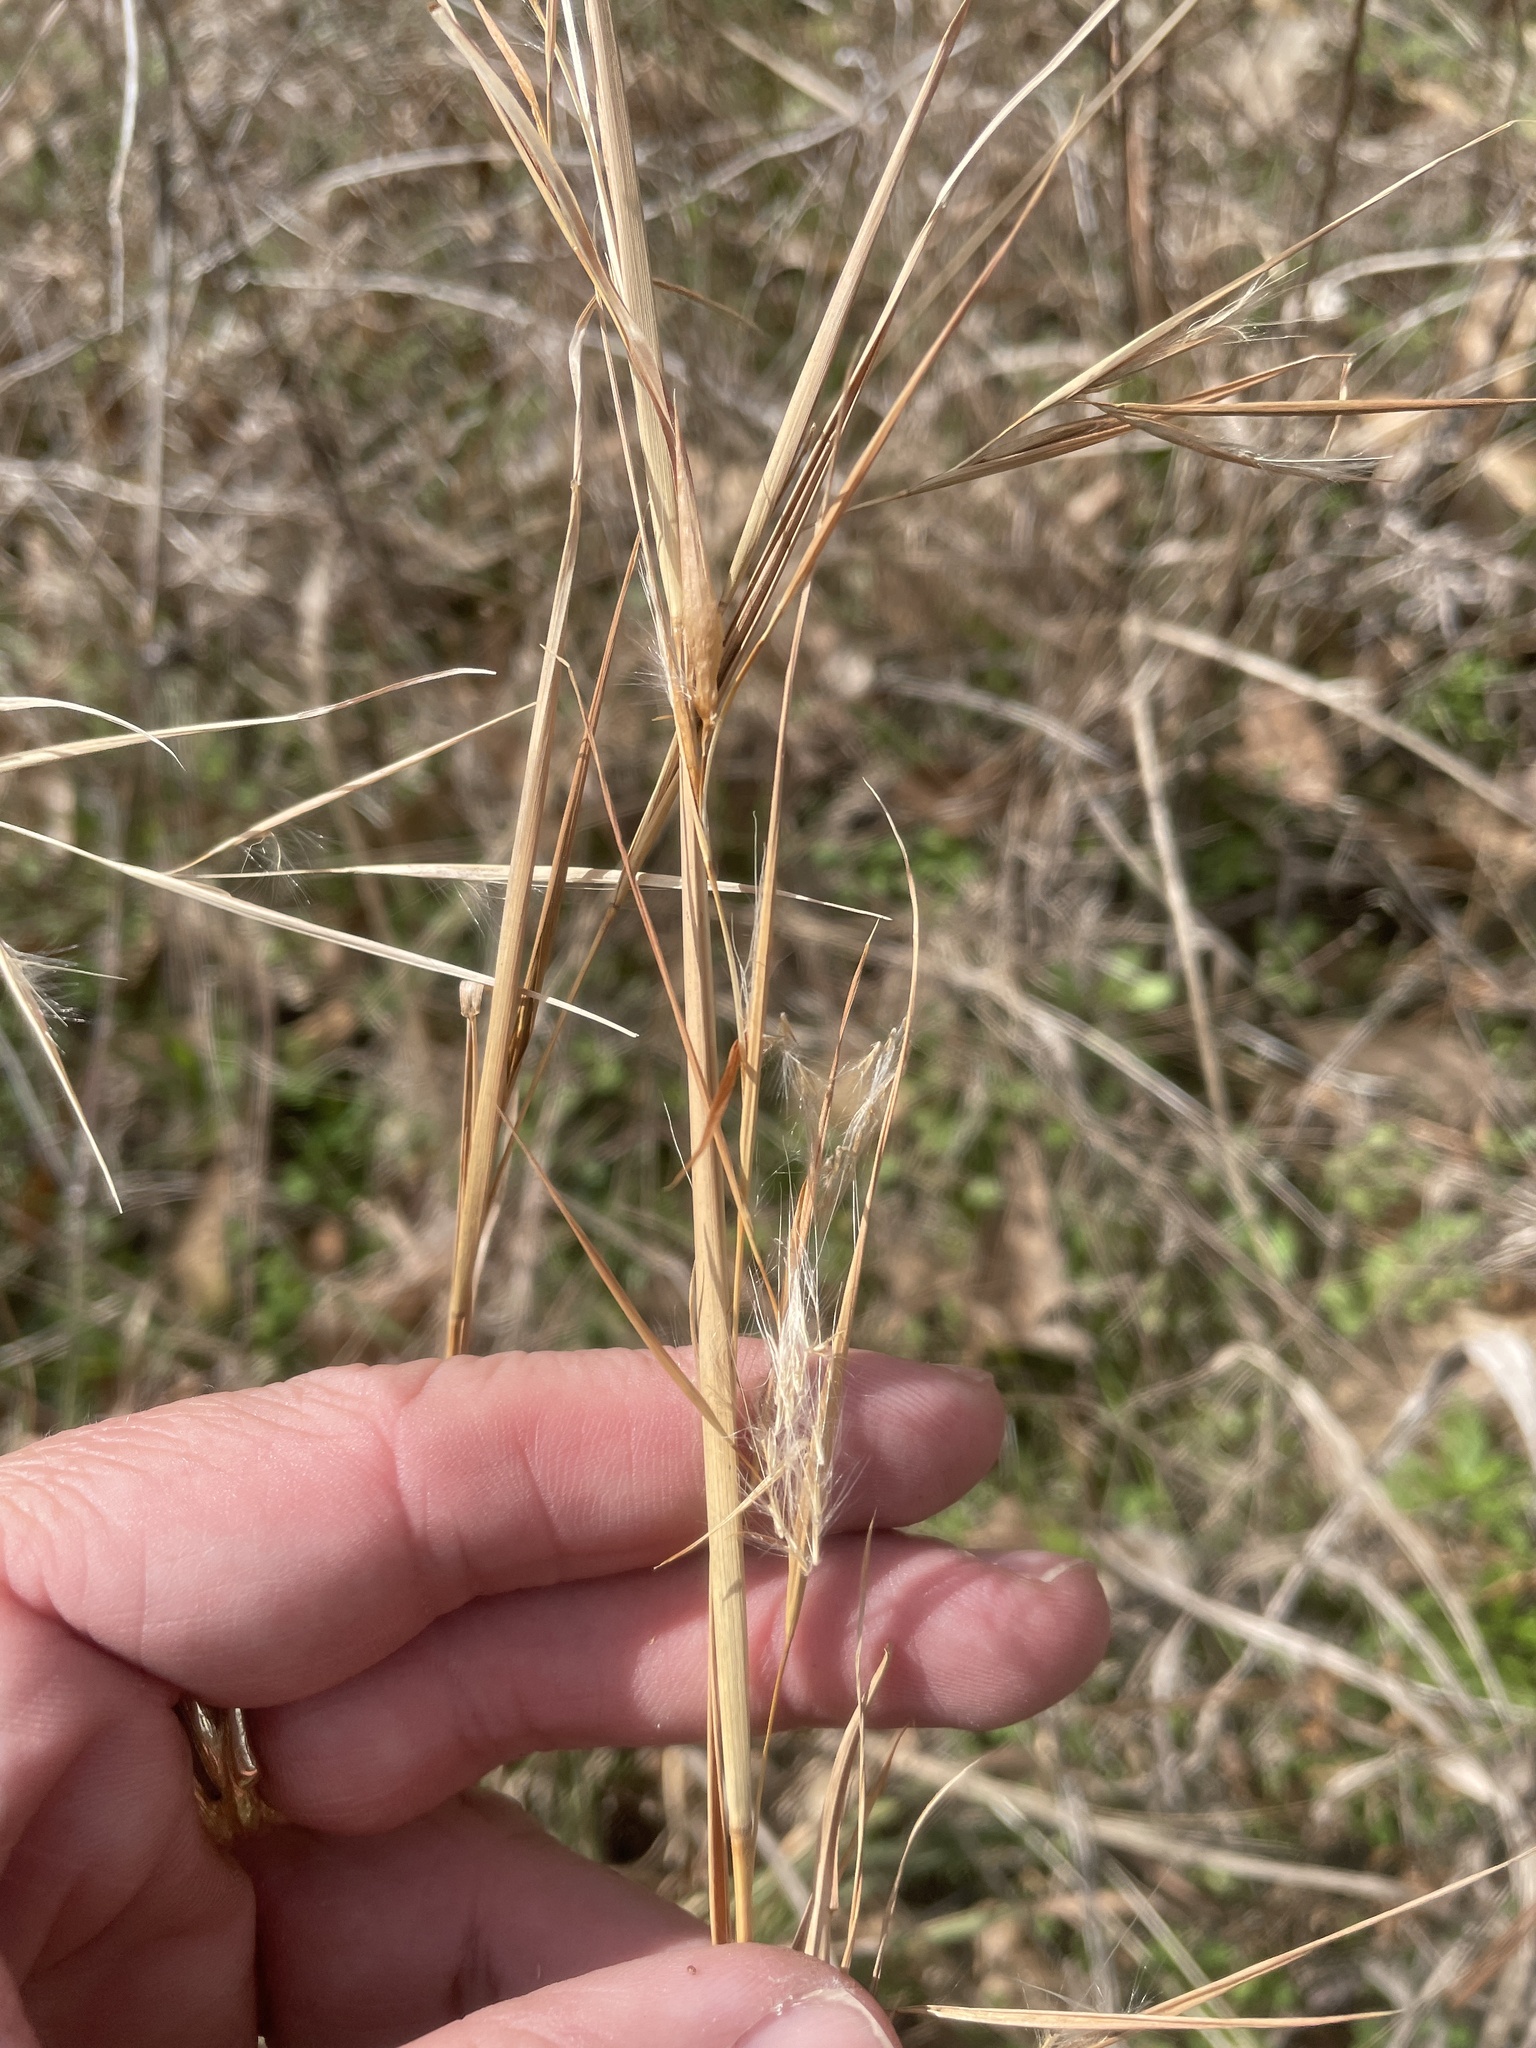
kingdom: Plantae
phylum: Tracheophyta
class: Liliopsida
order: Poales
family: Poaceae
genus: Andropogon
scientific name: Andropogon virginicus
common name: Broomsedge bluestem
